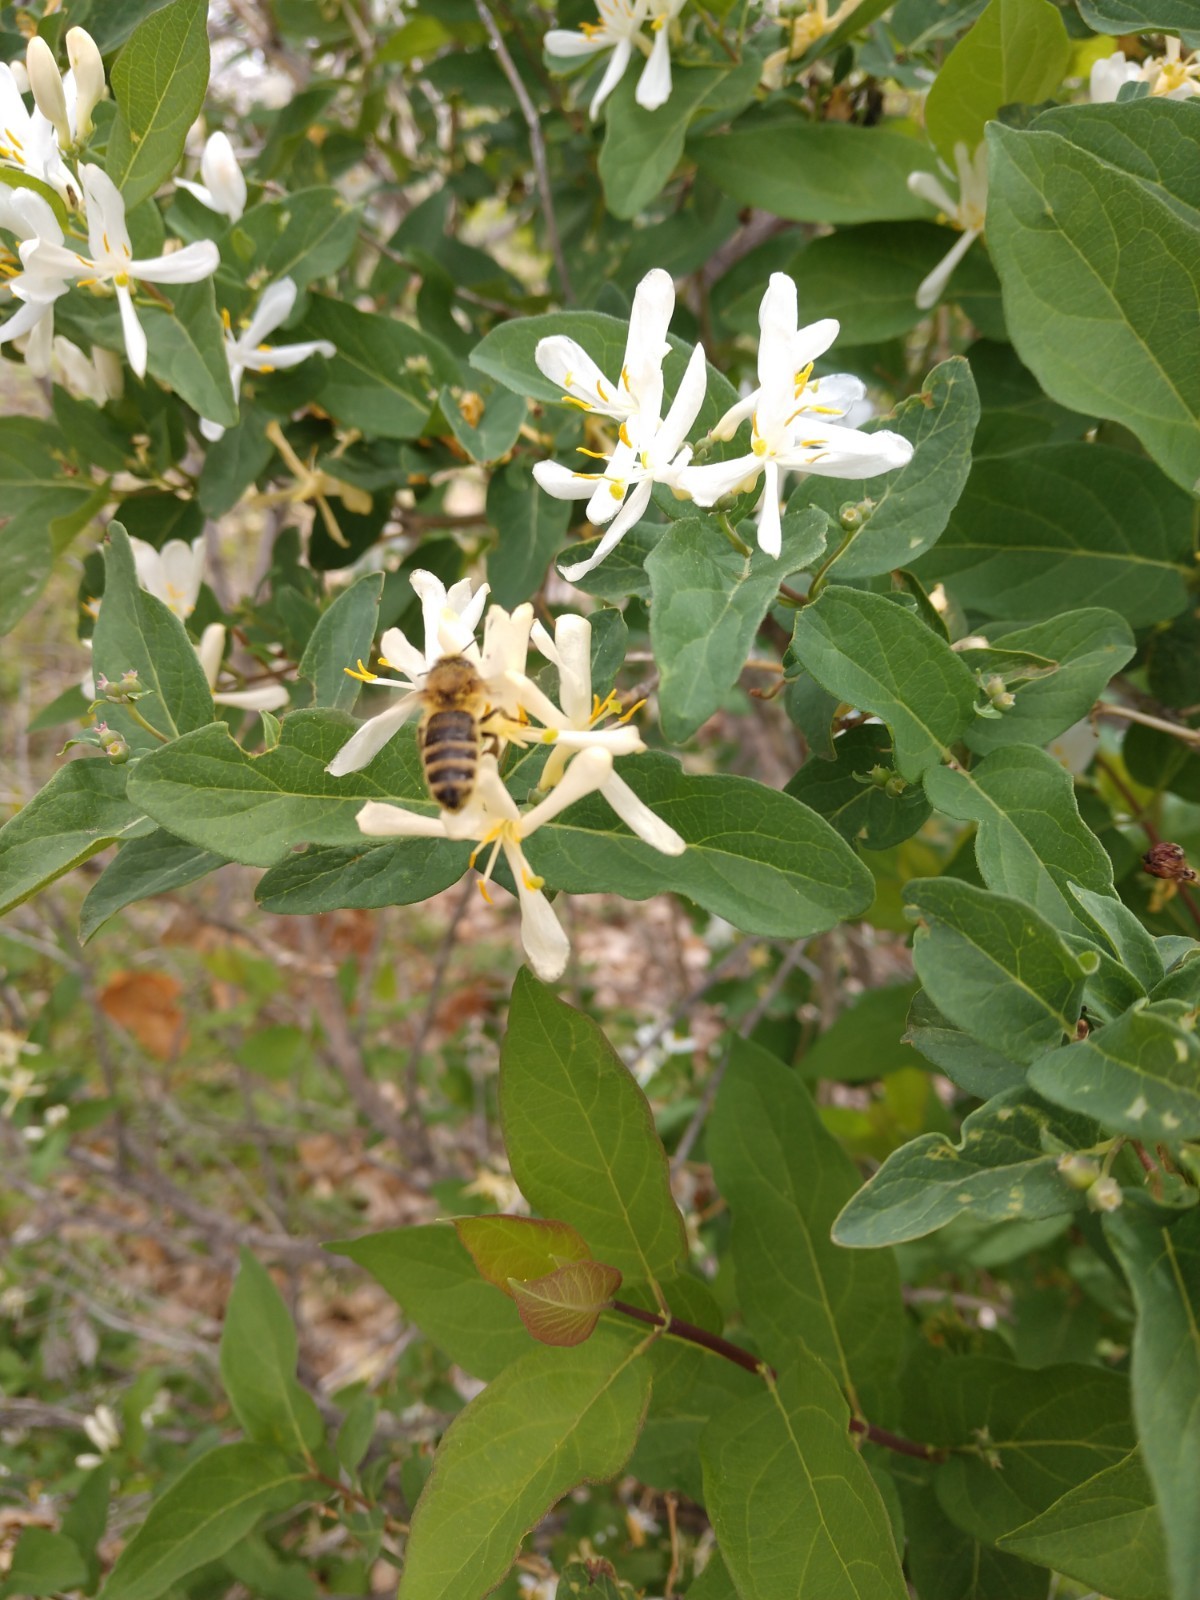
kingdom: Animalia
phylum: Arthropoda
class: Insecta
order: Hymenoptera
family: Apidae
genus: Apis
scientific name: Apis mellifera
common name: Honey bee
